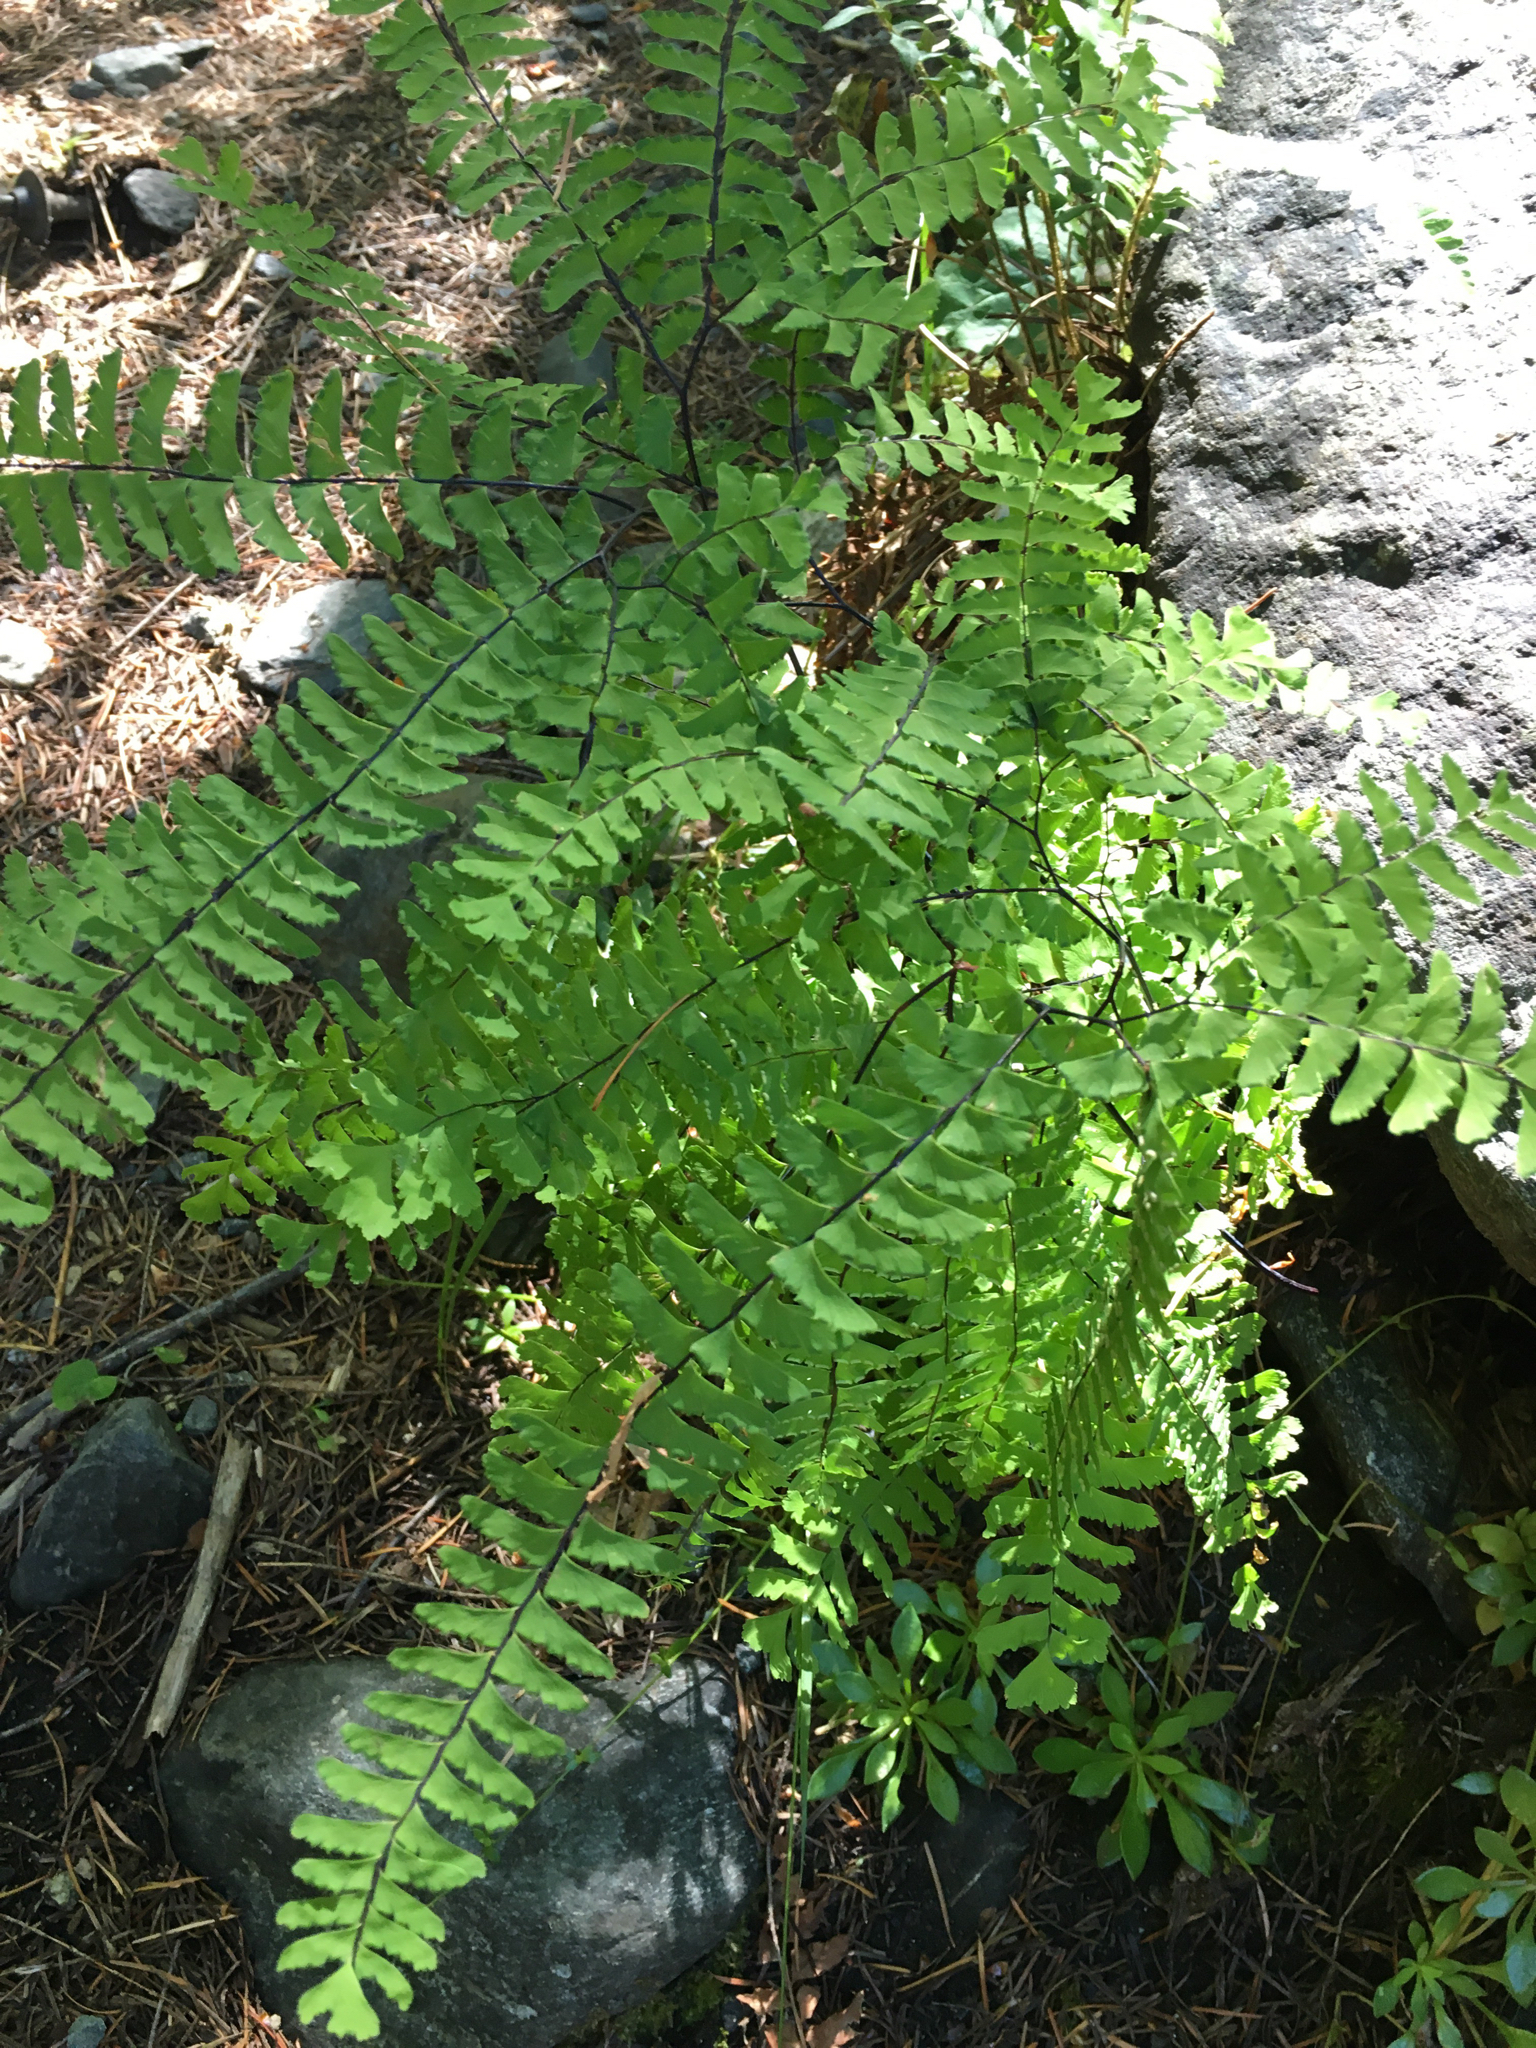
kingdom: Plantae
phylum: Tracheophyta
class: Polypodiopsida
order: Polypodiales
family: Pteridaceae
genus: Adiantum
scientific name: Adiantum aleuticum
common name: Aleutian maidenhair fern
